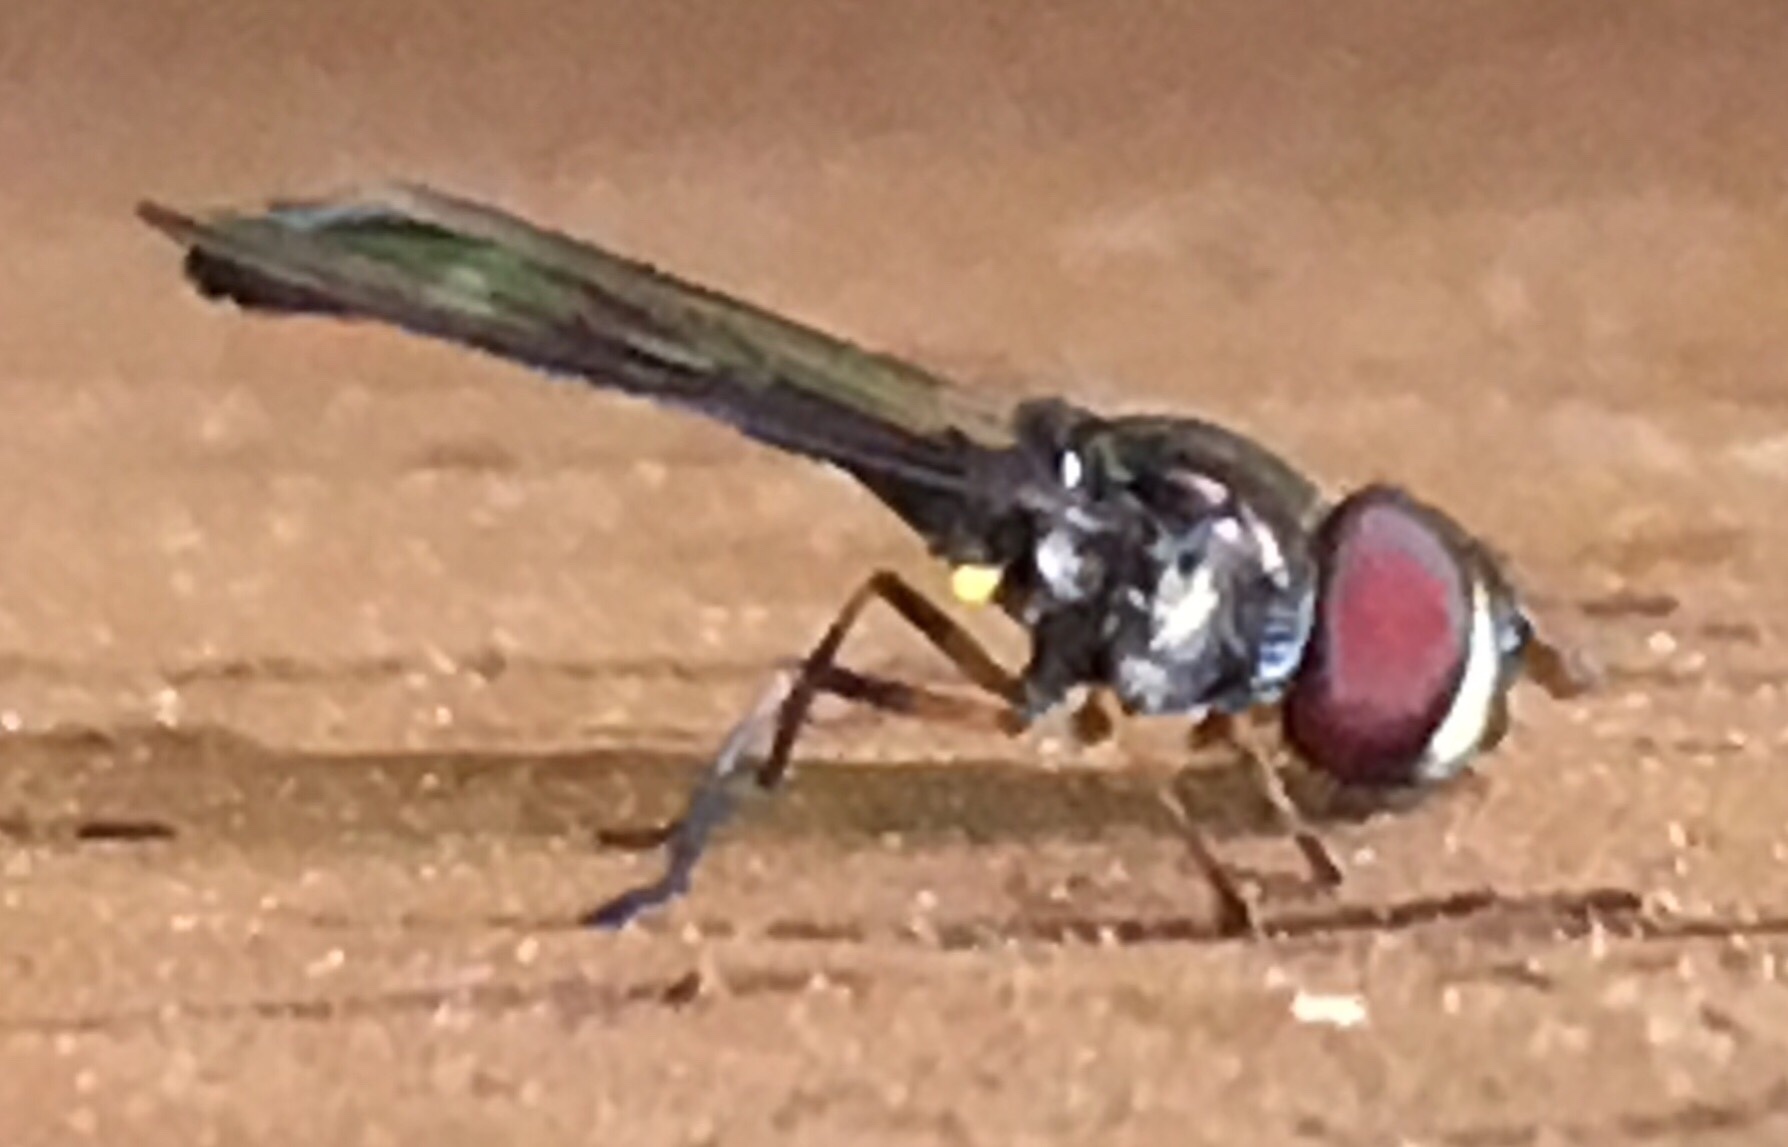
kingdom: Animalia
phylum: Arthropoda
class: Insecta
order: Diptera
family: Syrphidae
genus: Ocyptamus
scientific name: Ocyptamus costatus
